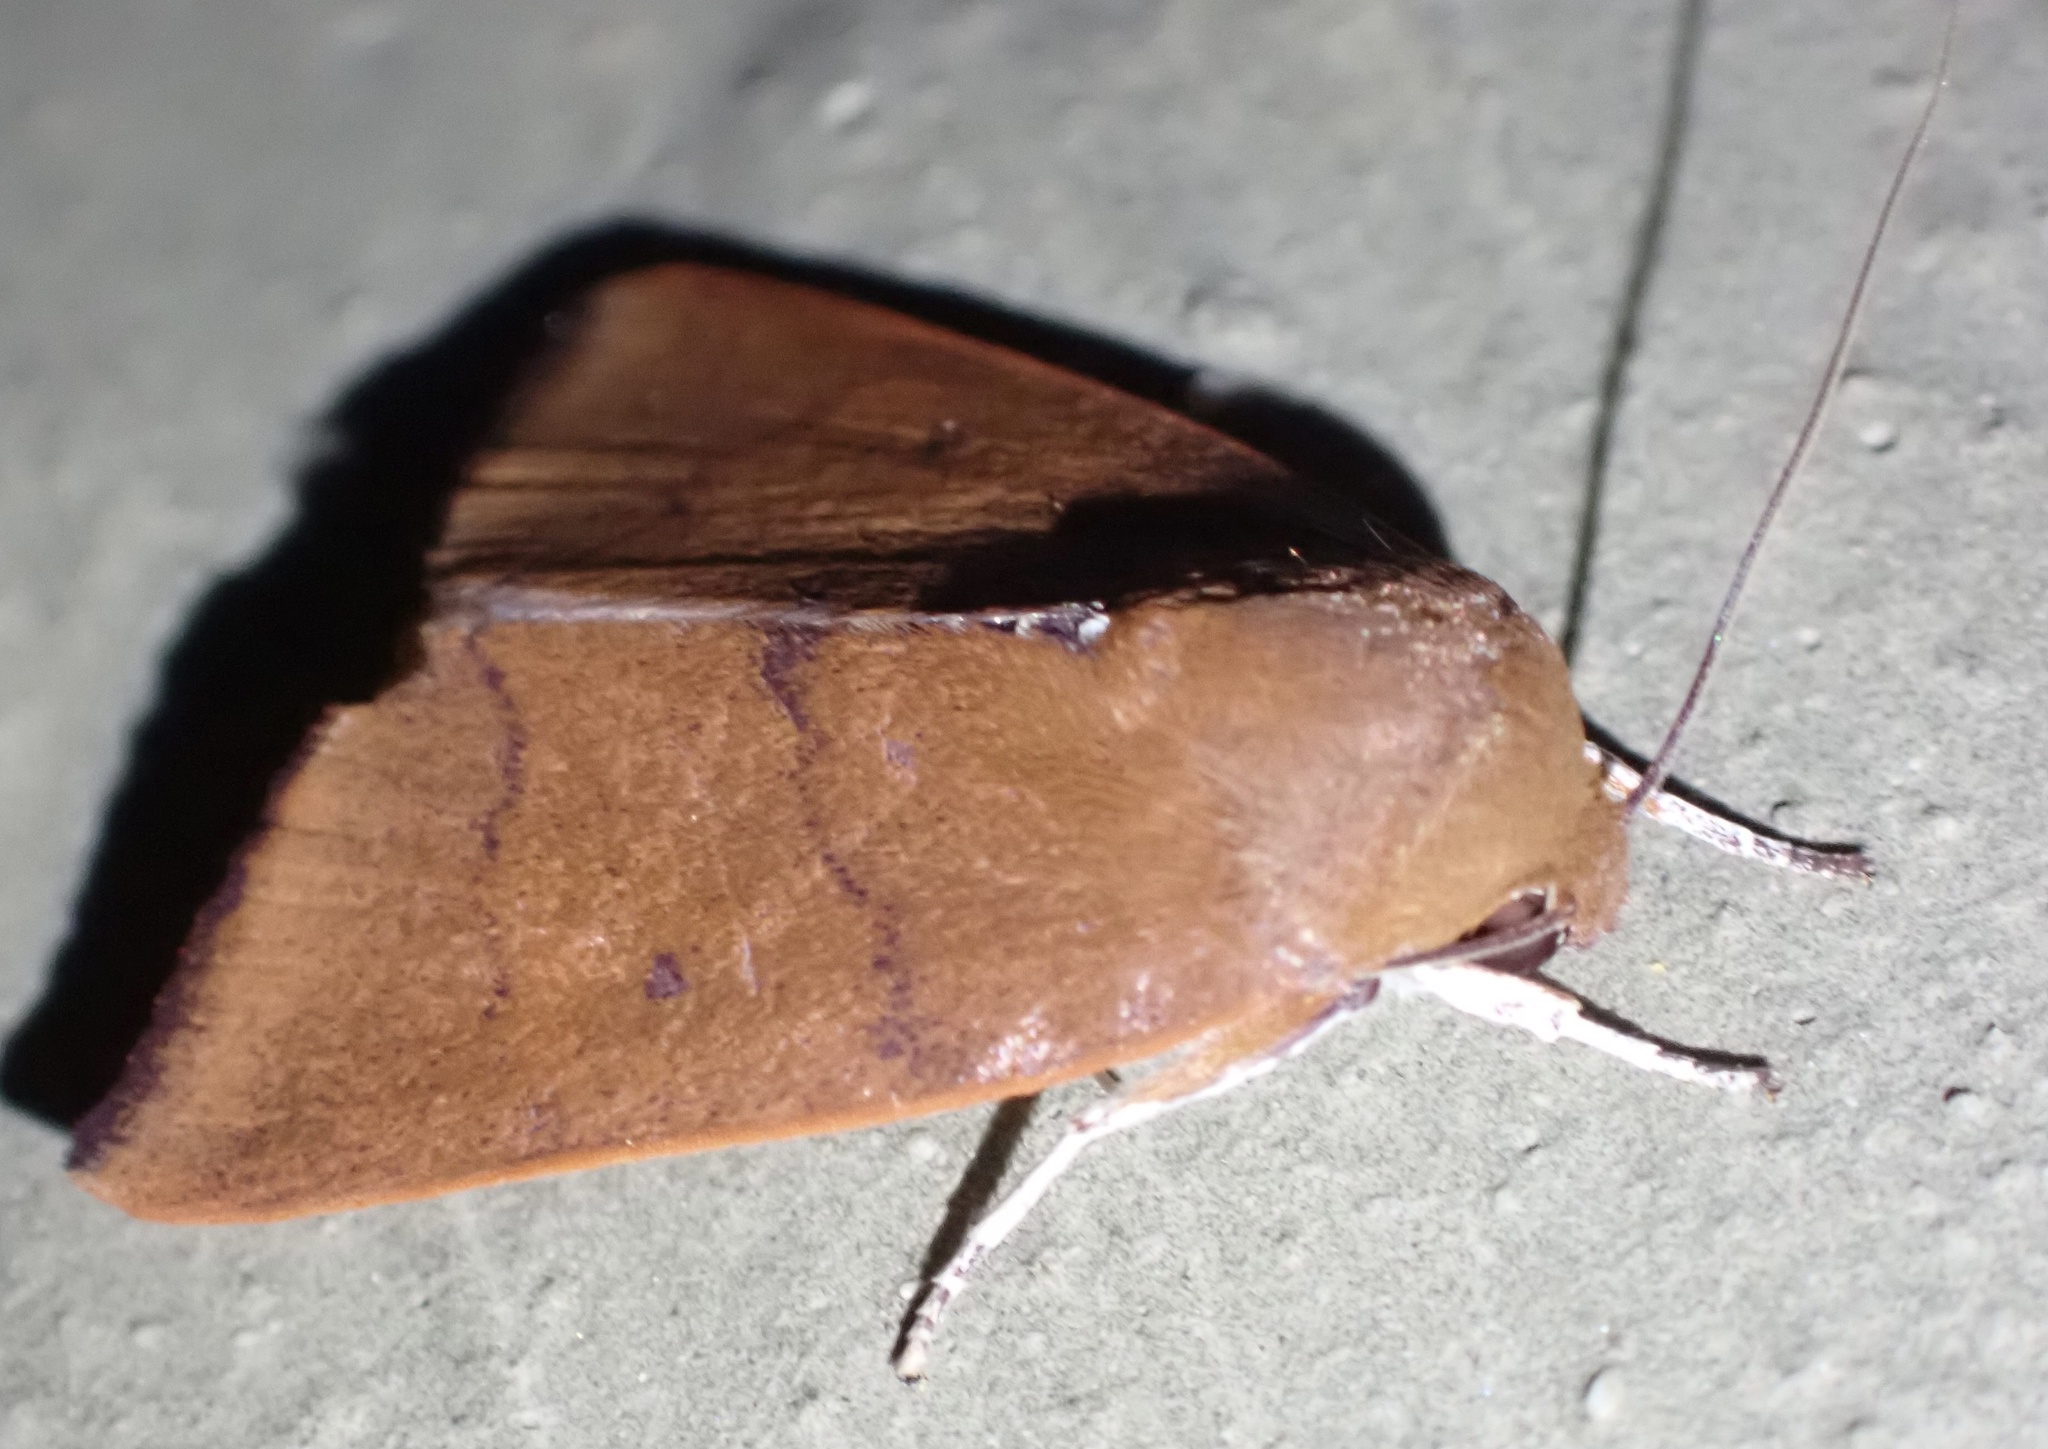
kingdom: Animalia
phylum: Arthropoda
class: Insecta
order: Lepidoptera
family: Nolidae
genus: Carea
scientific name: Carea unipunctata
